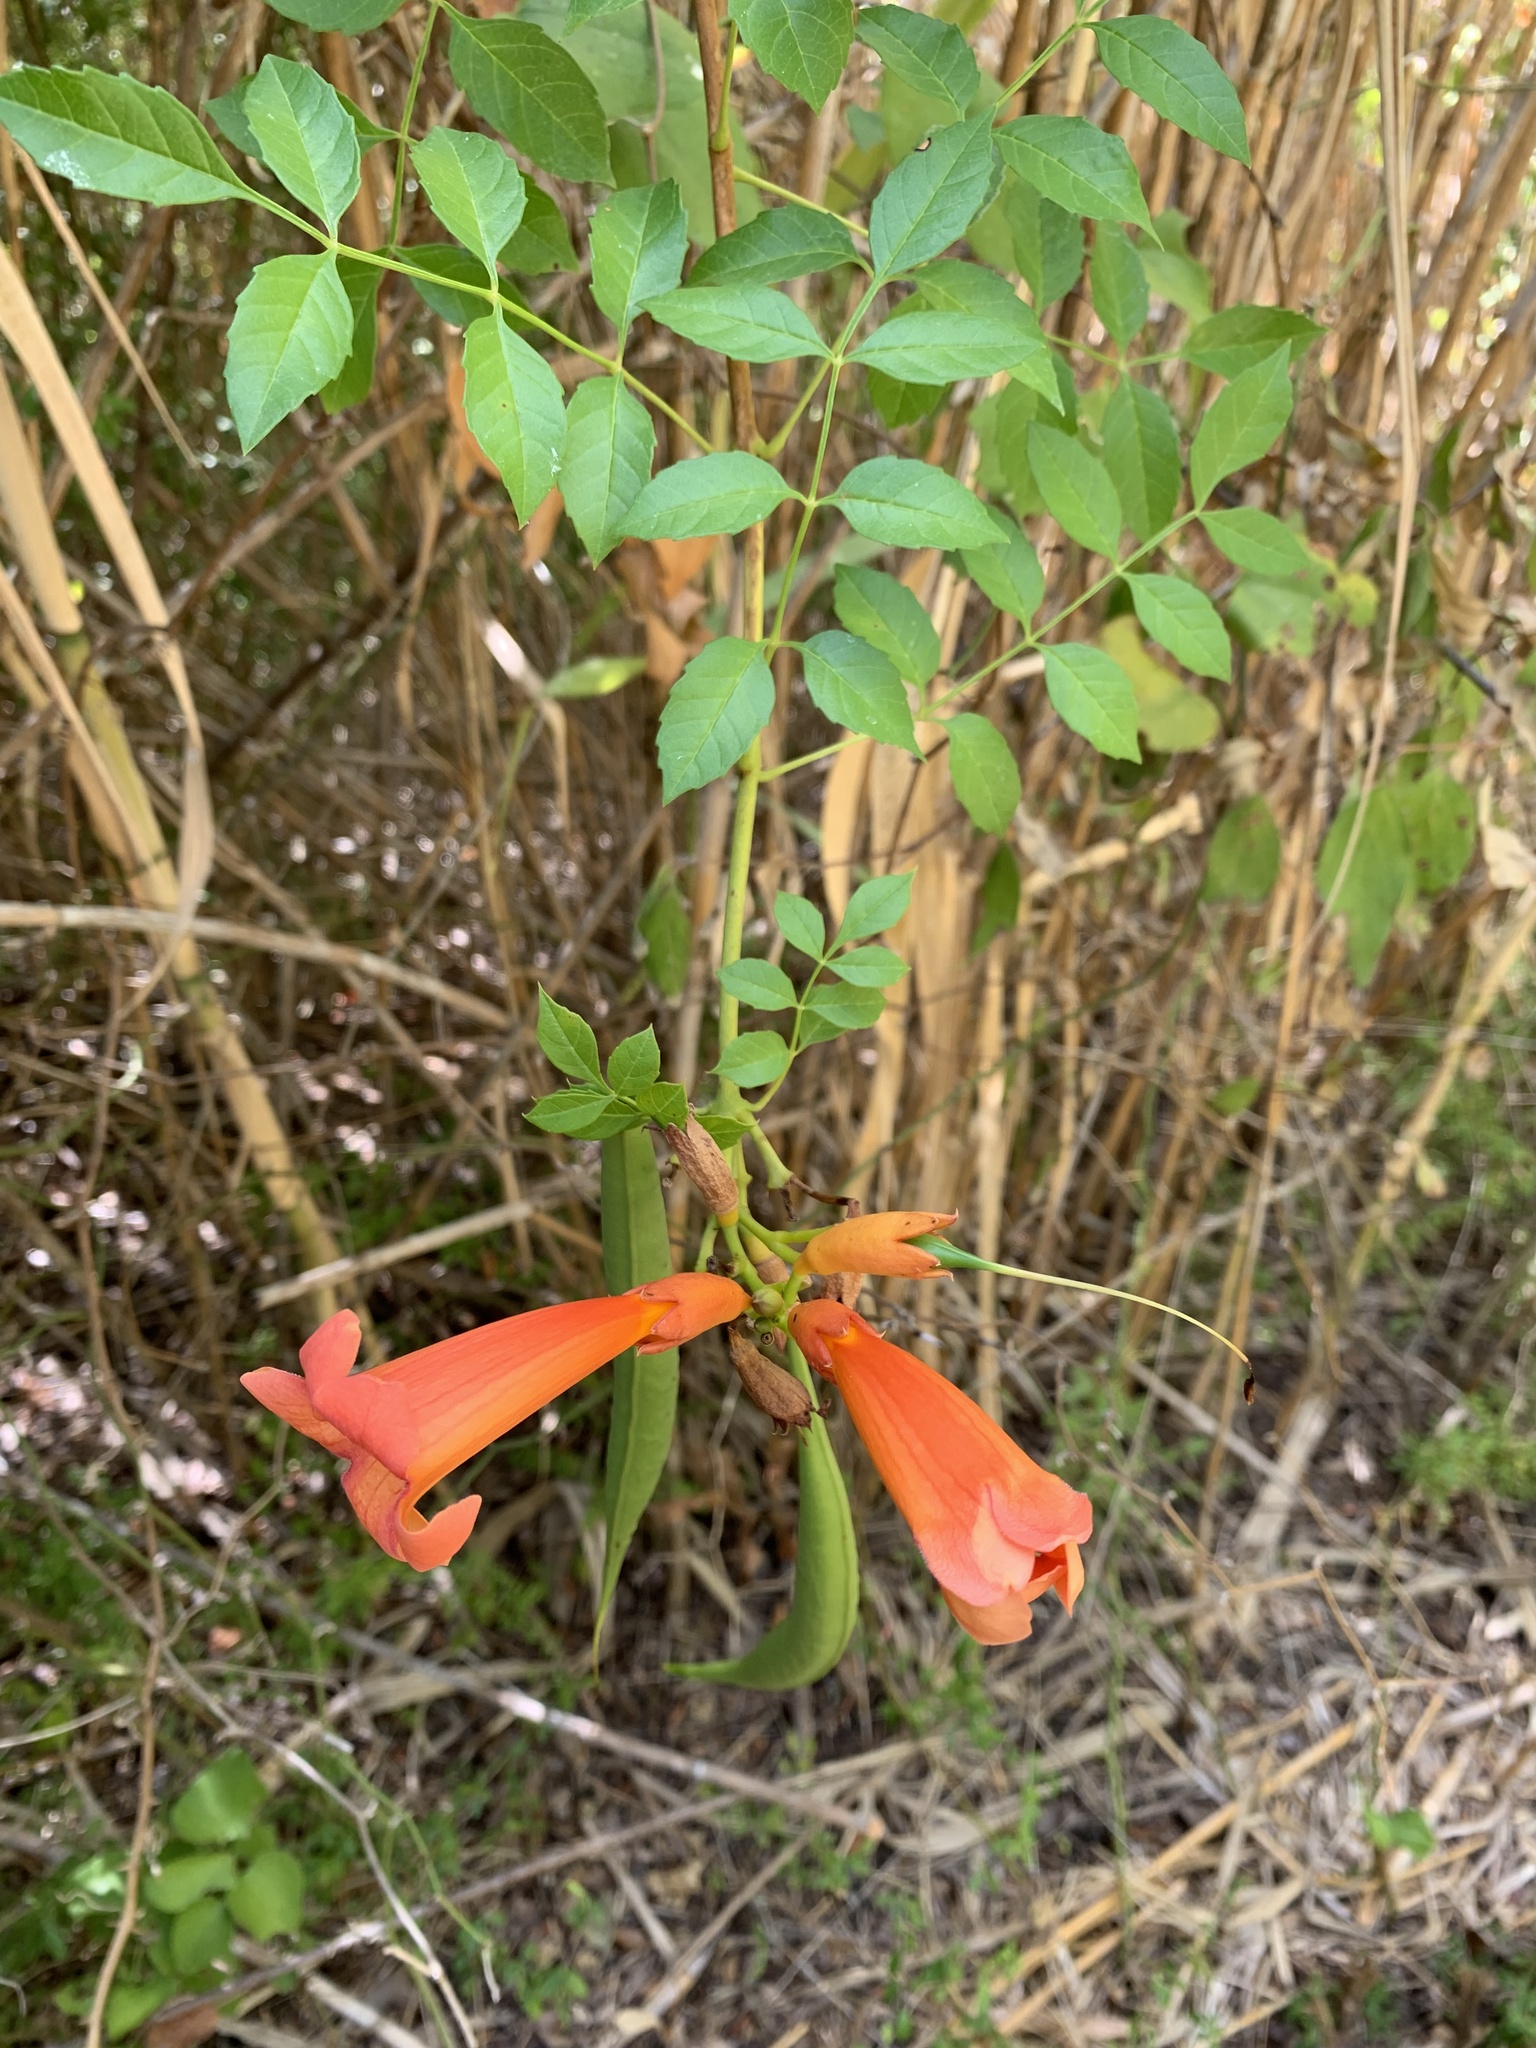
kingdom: Plantae
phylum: Tracheophyta
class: Magnoliopsida
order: Lamiales
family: Bignoniaceae
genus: Campsis
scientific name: Campsis radicans
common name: Trumpet-creeper
